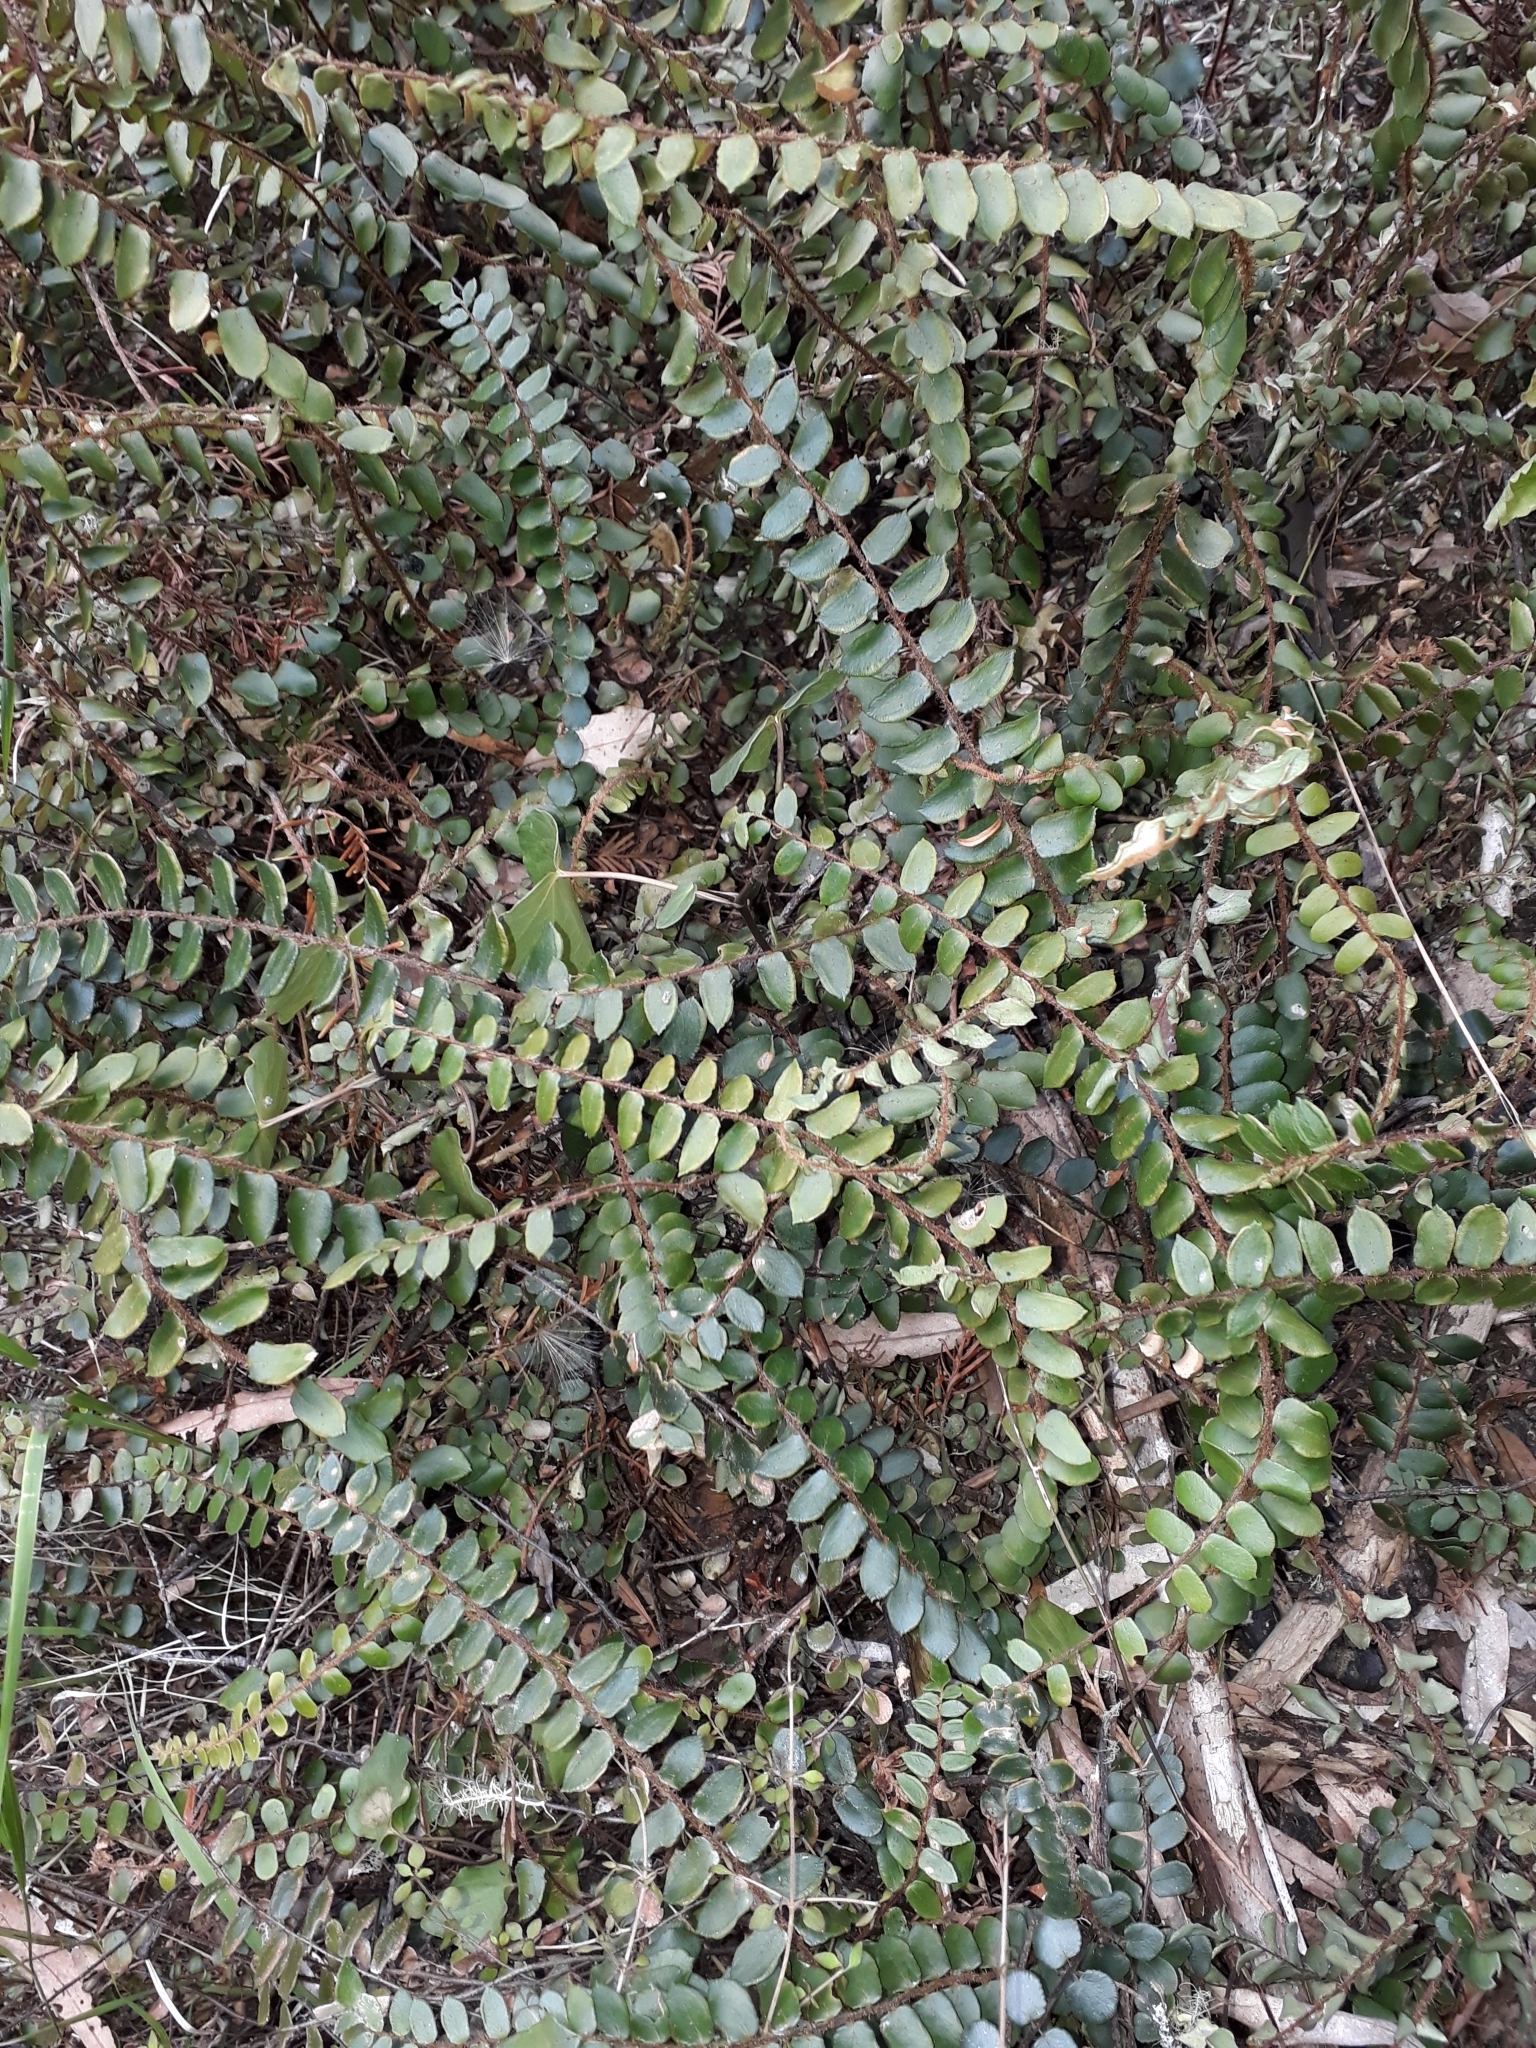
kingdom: Plantae
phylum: Tracheophyta
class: Polypodiopsida
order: Polypodiales
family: Pteridaceae
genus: Pellaea
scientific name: Pellaea rotundifolia
